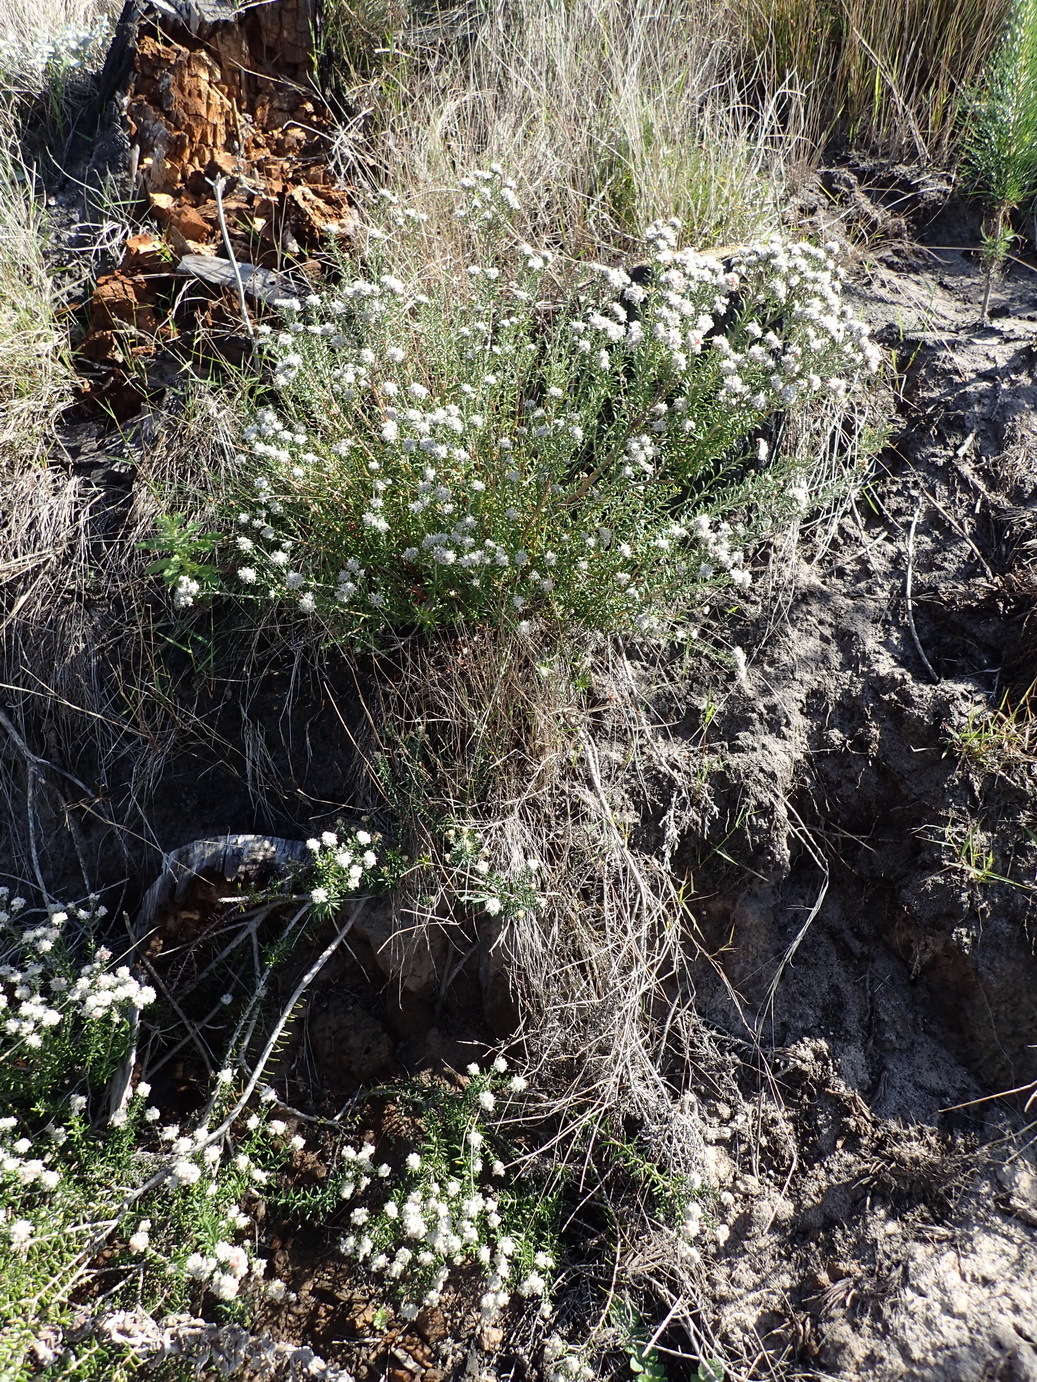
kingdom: Plantae
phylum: Tracheophyta
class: Magnoliopsida
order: Rosales
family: Rhamnaceae
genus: Trichocephalus
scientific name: Trichocephalus stipularis
